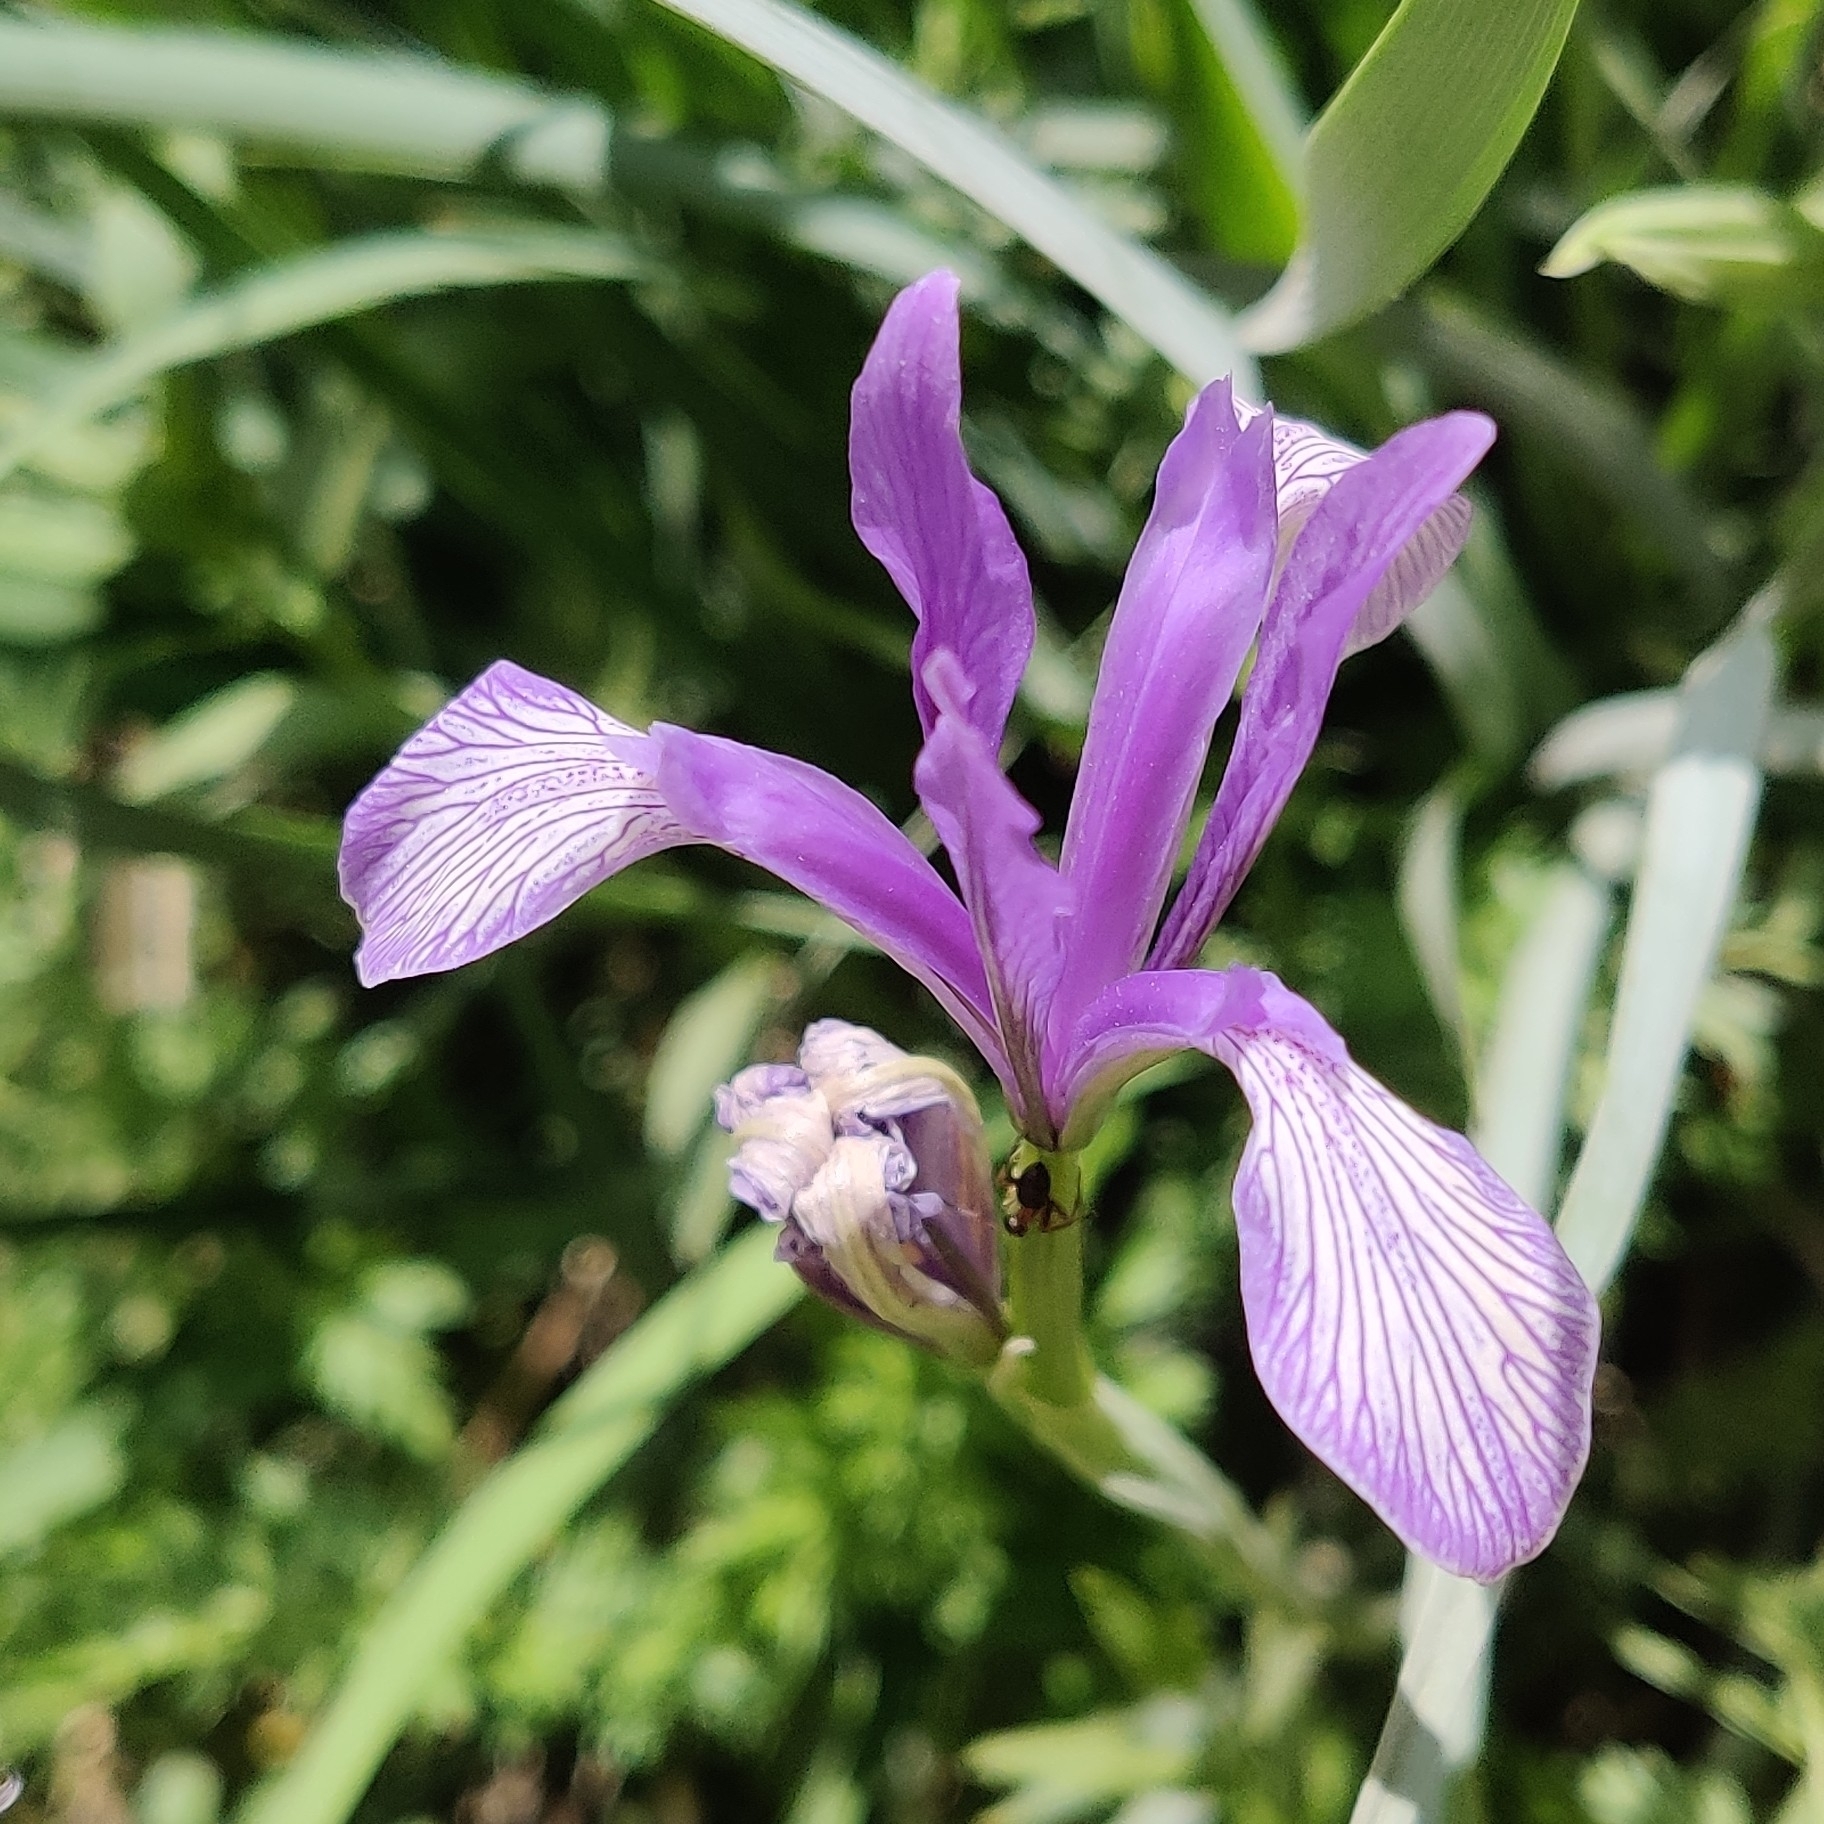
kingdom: Plantae
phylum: Tracheophyta
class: Liliopsida
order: Asparagales
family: Iridaceae
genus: Iris
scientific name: Iris lactea
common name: White-flower chinese iris
